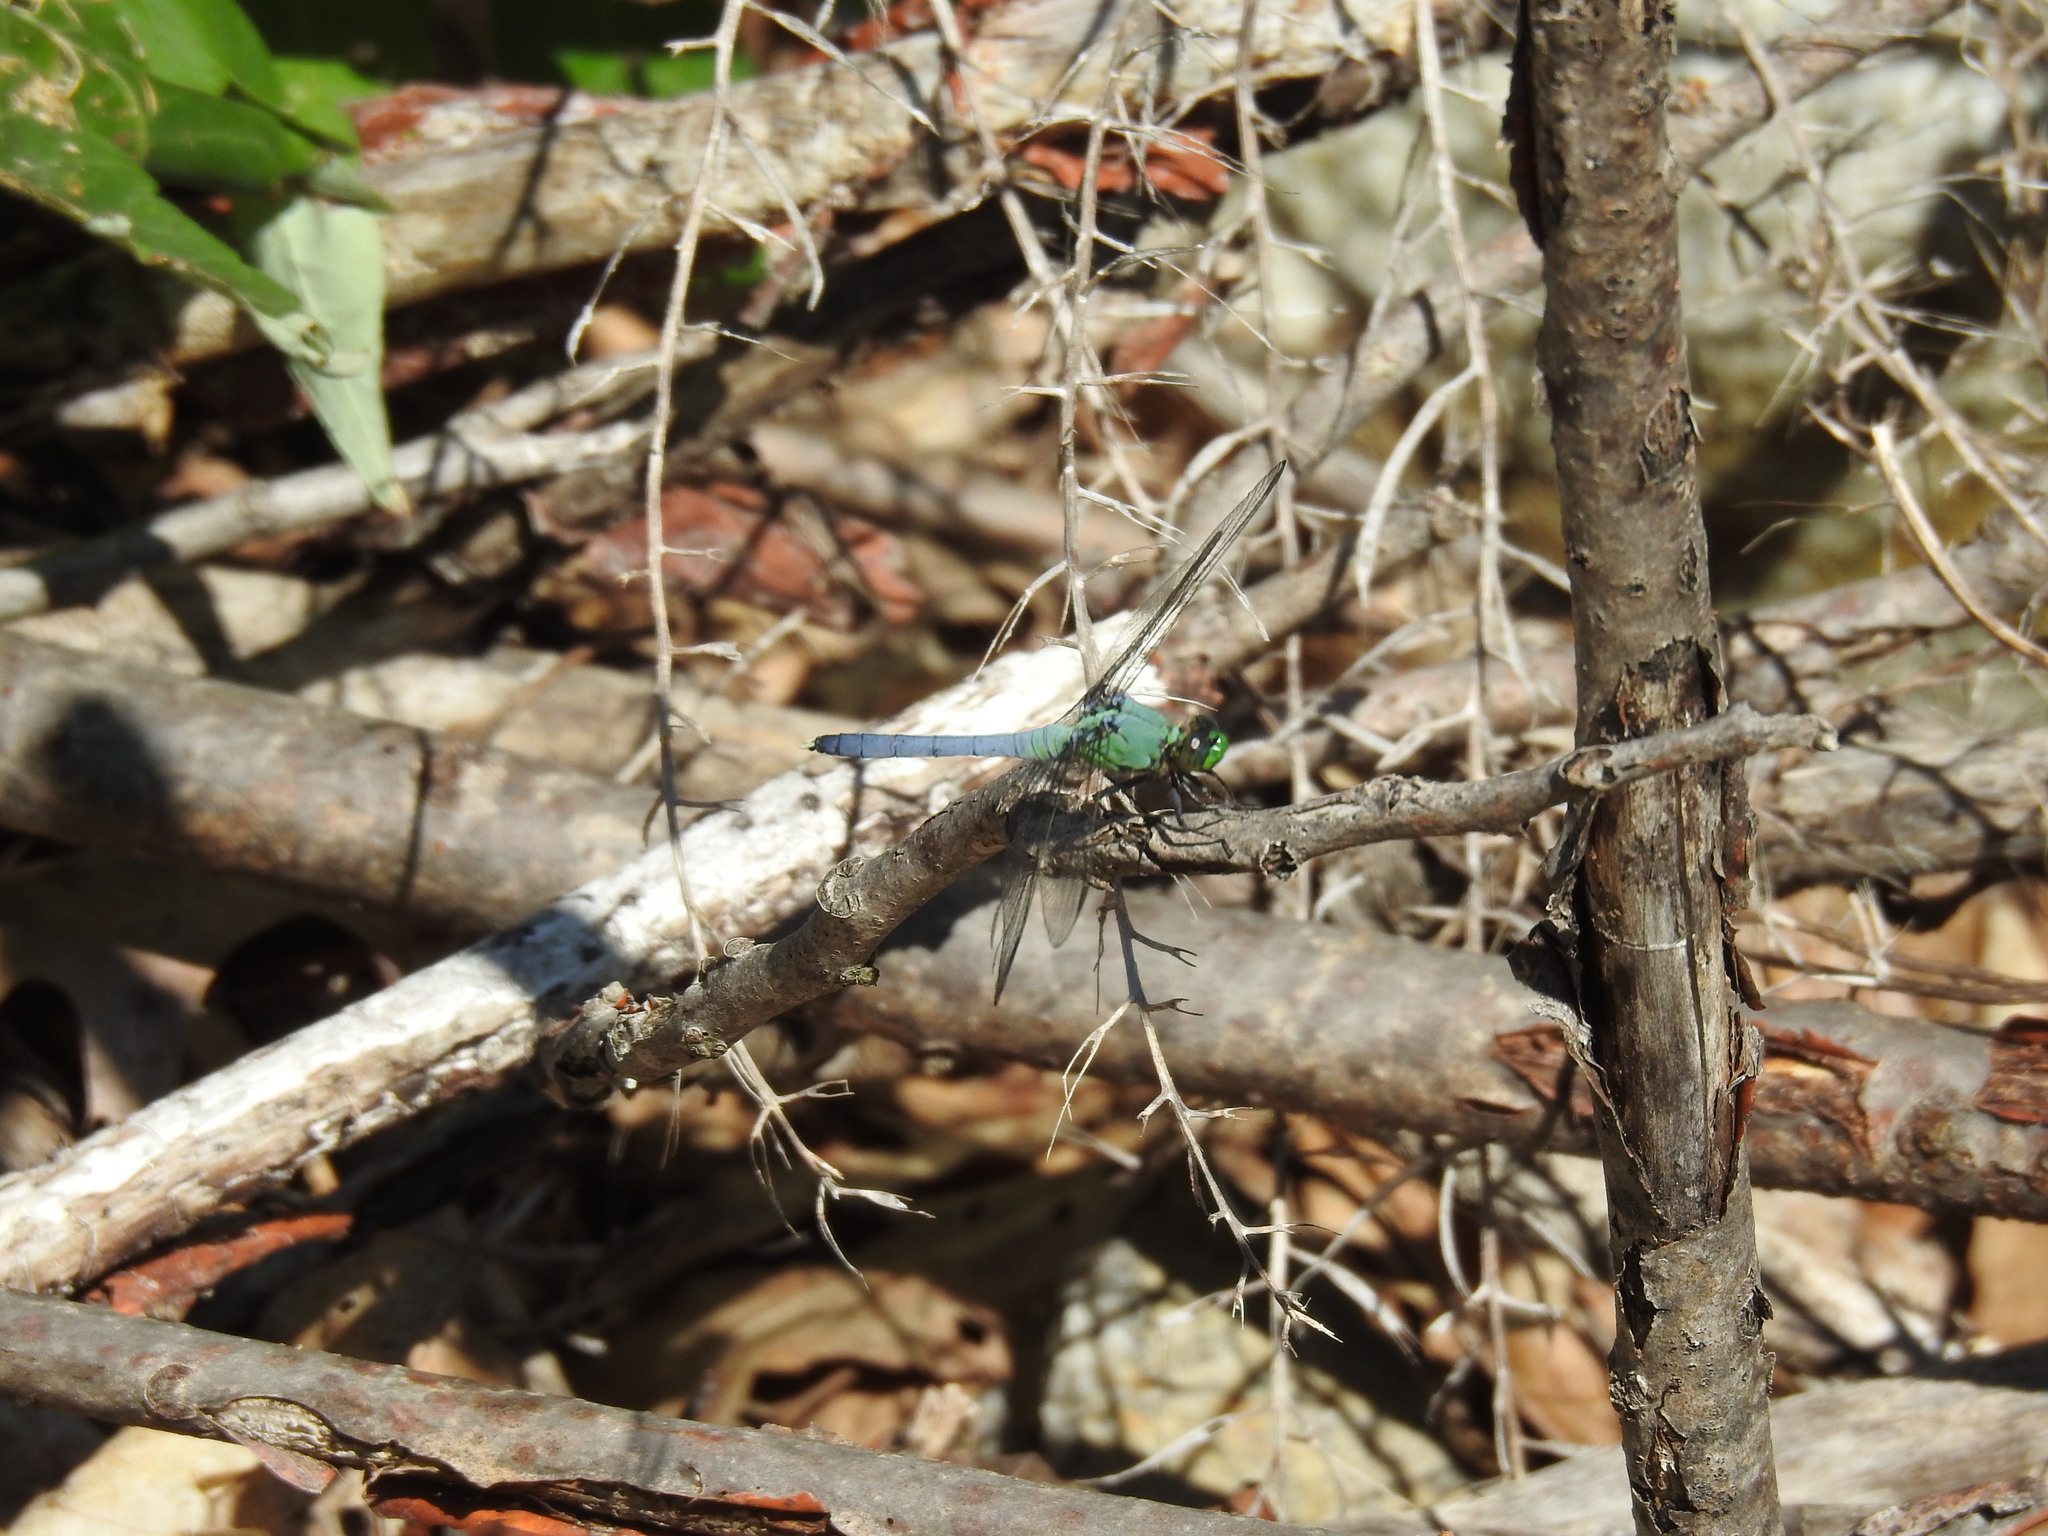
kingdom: Animalia
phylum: Arthropoda
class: Insecta
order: Odonata
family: Libellulidae
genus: Erythemis
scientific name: Erythemis simplicicollis
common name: Eastern pondhawk
